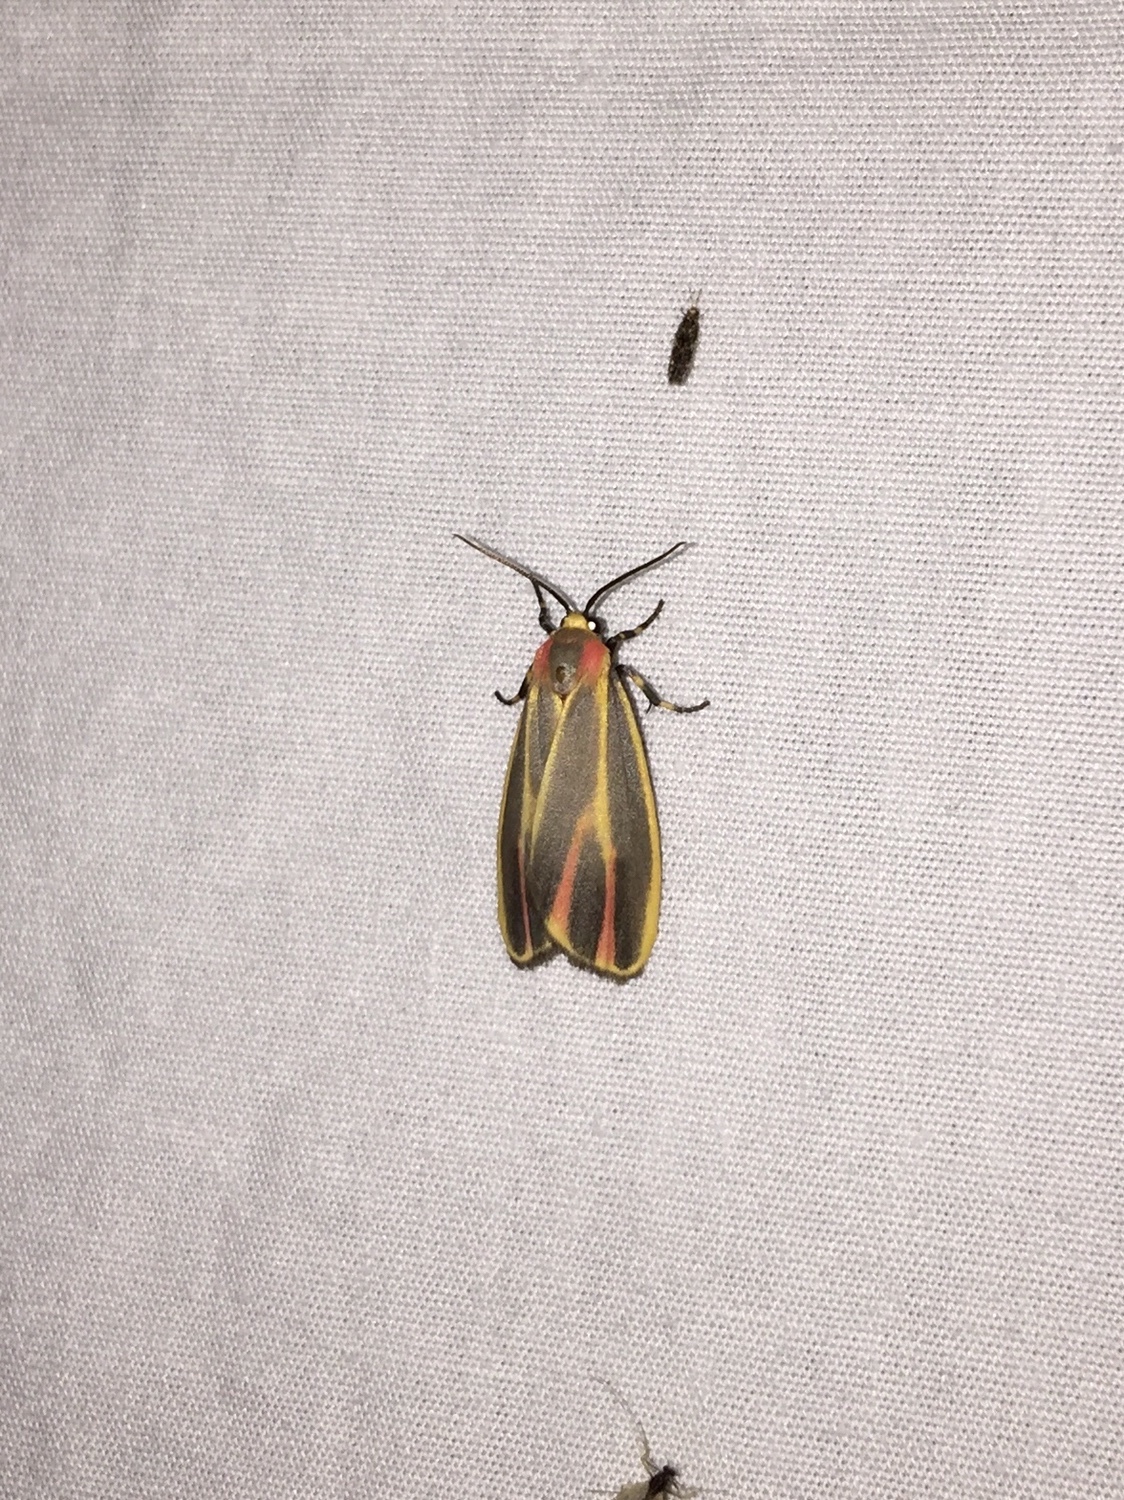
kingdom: Animalia
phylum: Arthropoda
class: Insecta
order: Lepidoptera
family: Erebidae
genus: Hypoprepia
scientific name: Hypoprepia fucosa
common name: Painted lichen moth
